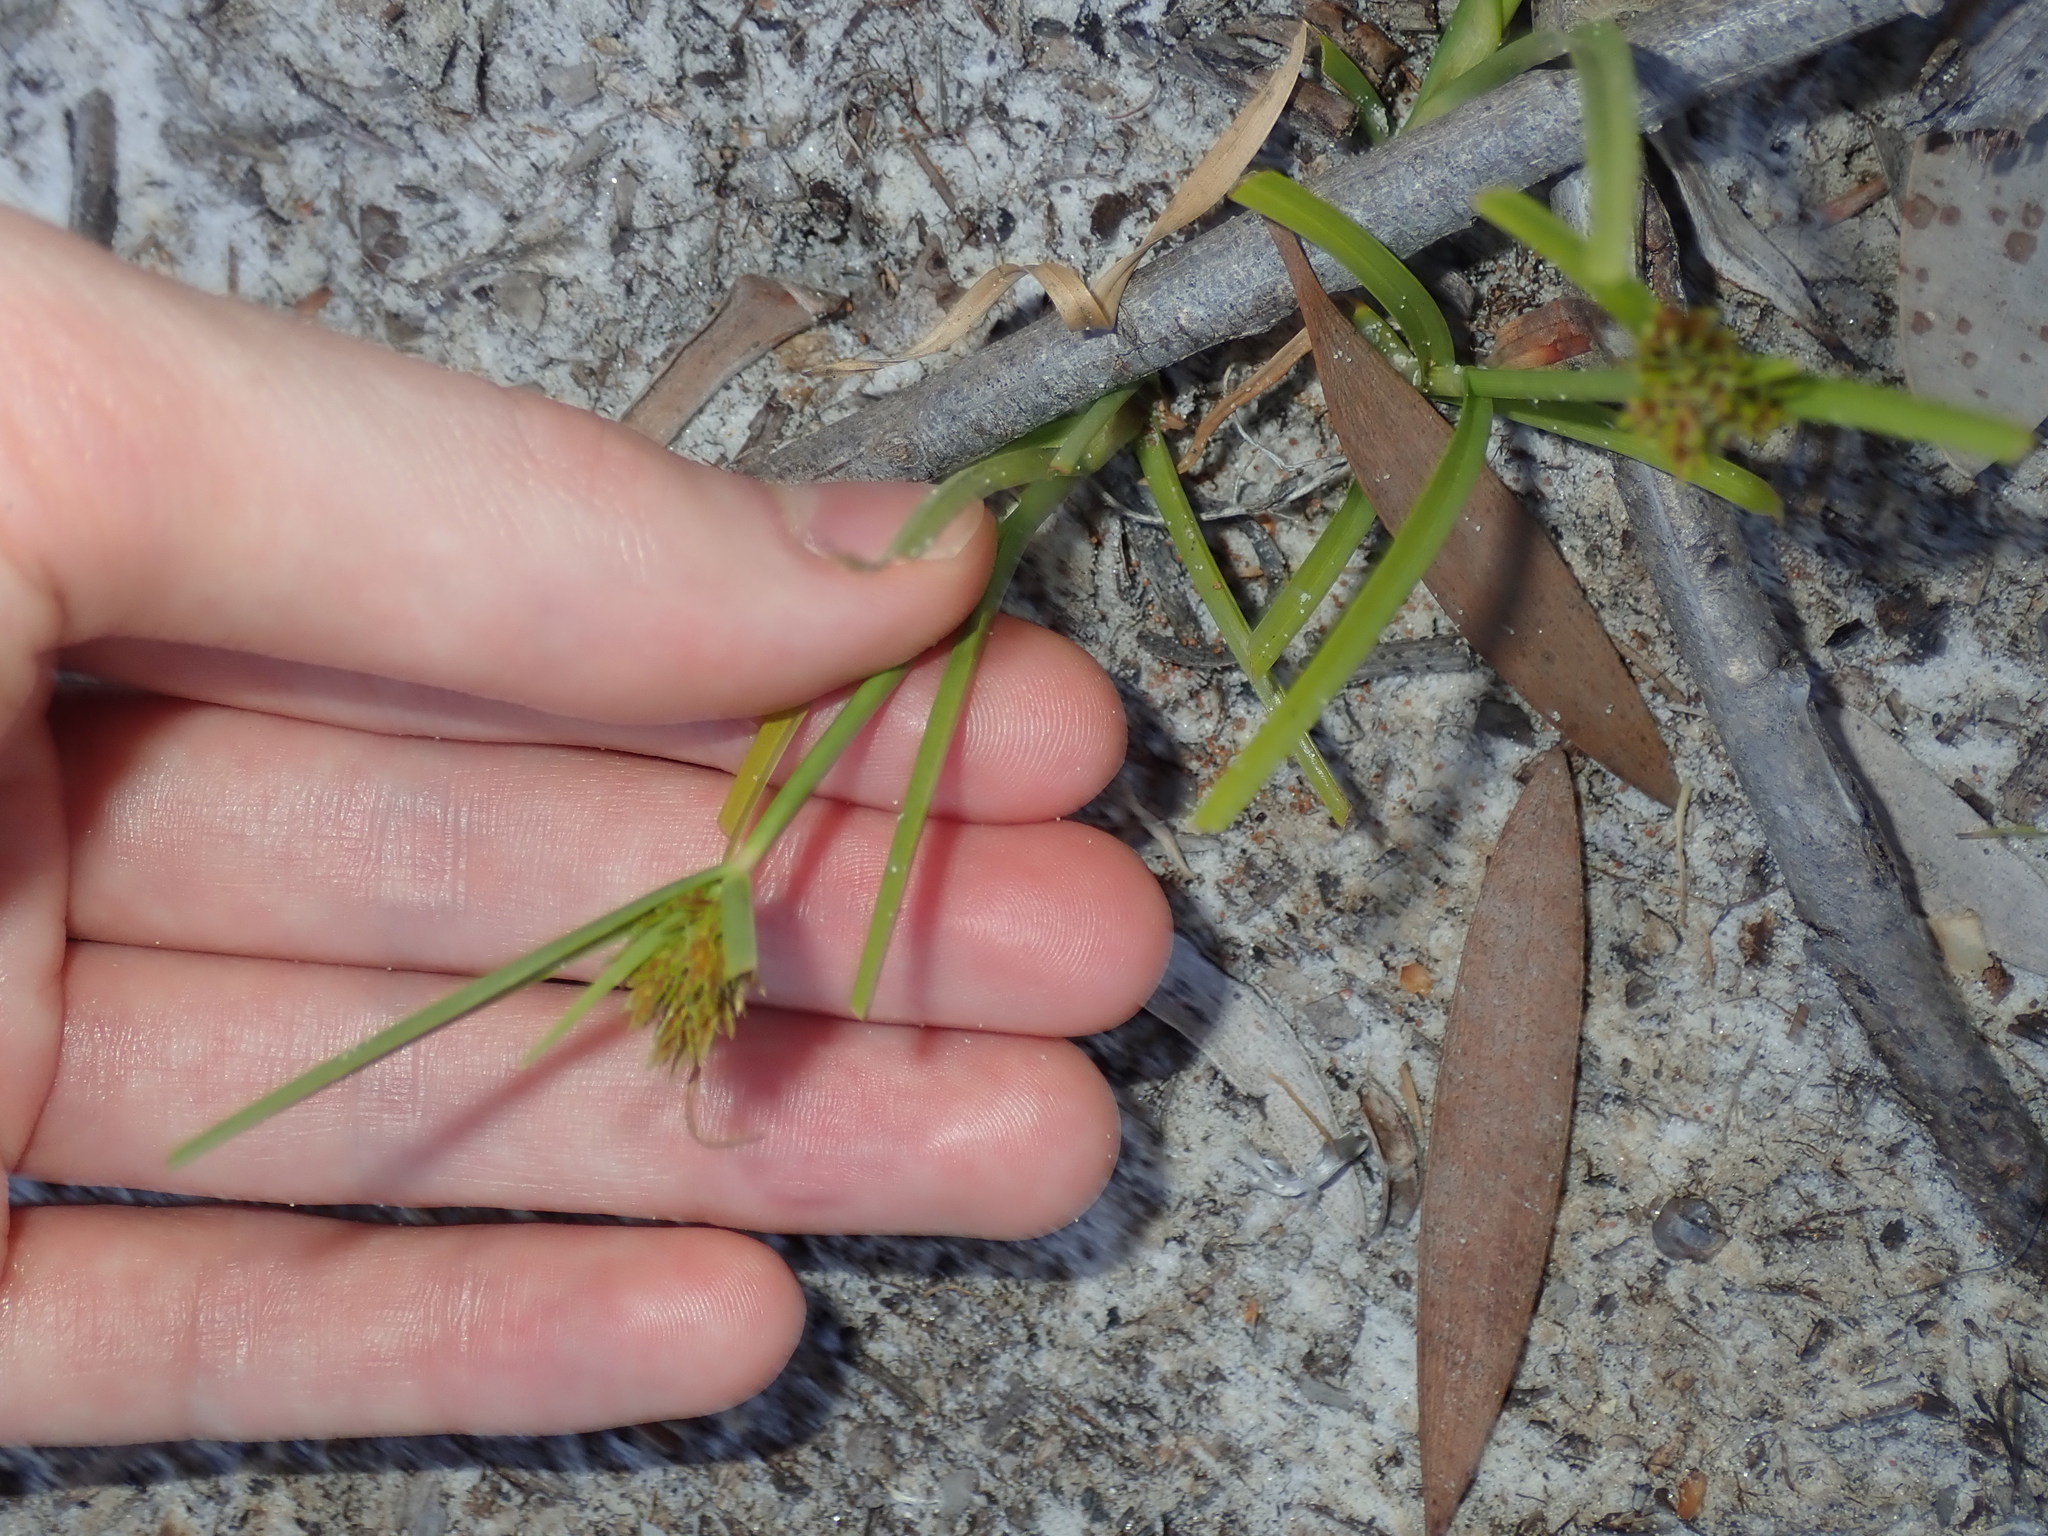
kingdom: Plantae
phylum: Tracheophyta
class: Liliopsida
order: Poales
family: Cyperaceae
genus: Cyperus
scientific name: Cyperus polystachyos
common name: Bunchy flat sedge
